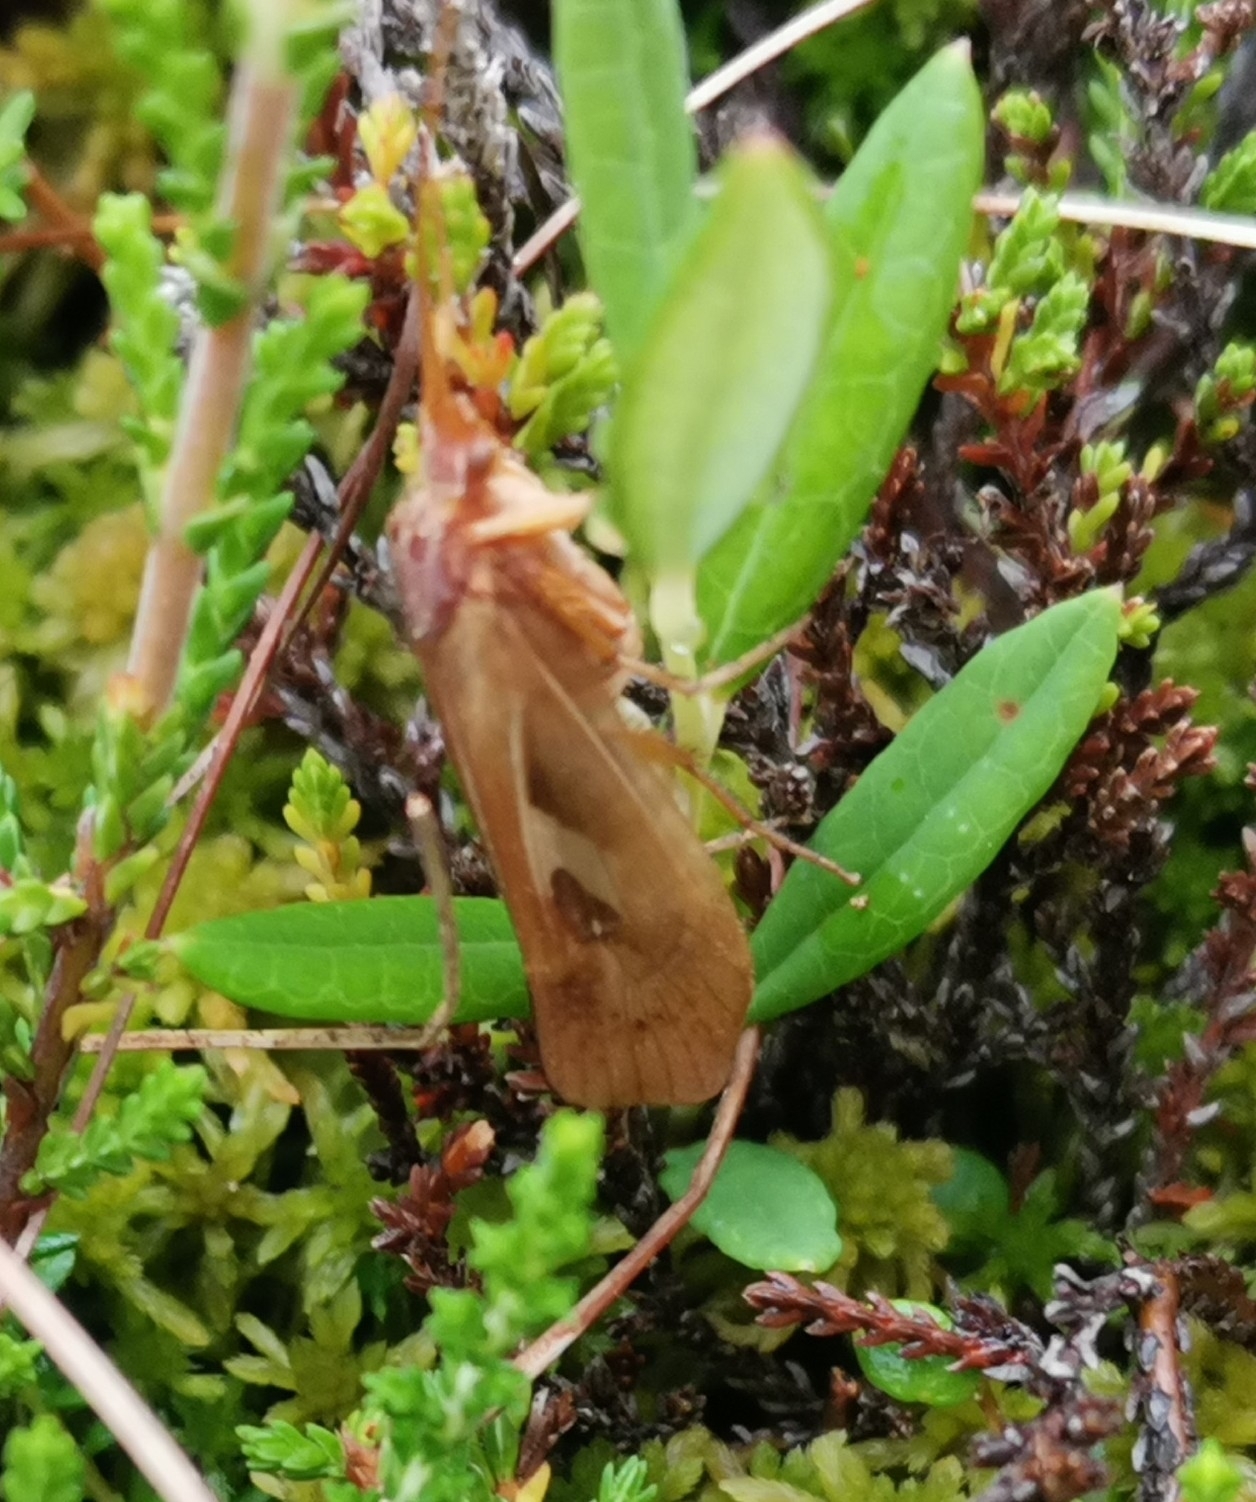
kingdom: Animalia
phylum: Arthropoda
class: Insecta
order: Trichoptera
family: Limnephilidae
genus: Limnephilus
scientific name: Limnephilus rhombicus
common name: Diamond northern caddisfly
